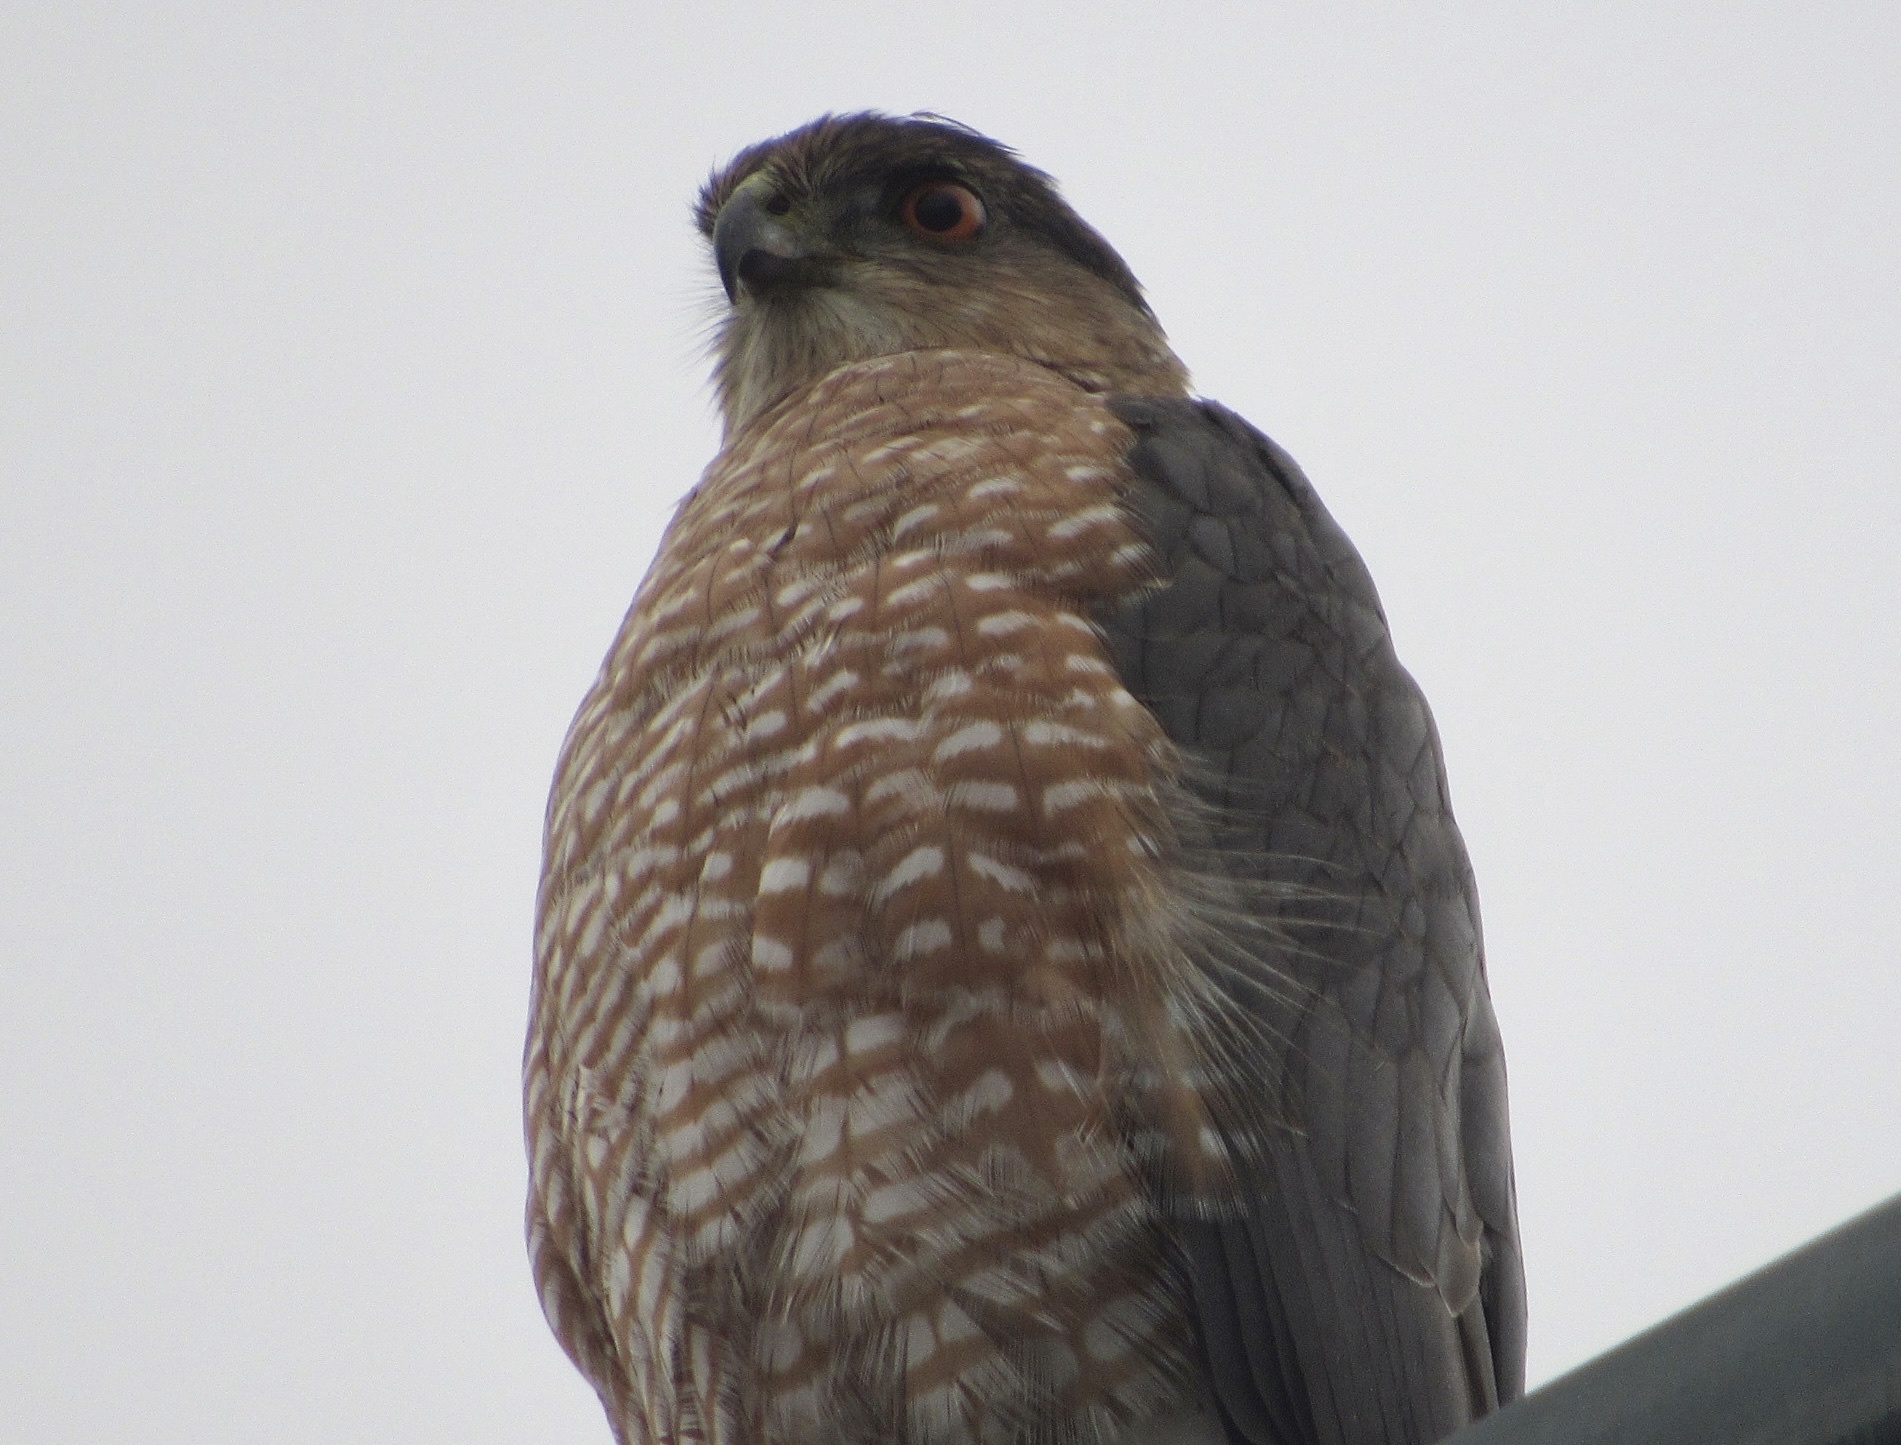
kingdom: Animalia
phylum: Chordata
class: Aves
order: Accipitriformes
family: Accipitridae
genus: Accipiter
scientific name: Accipiter cooperii
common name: Cooper's hawk
